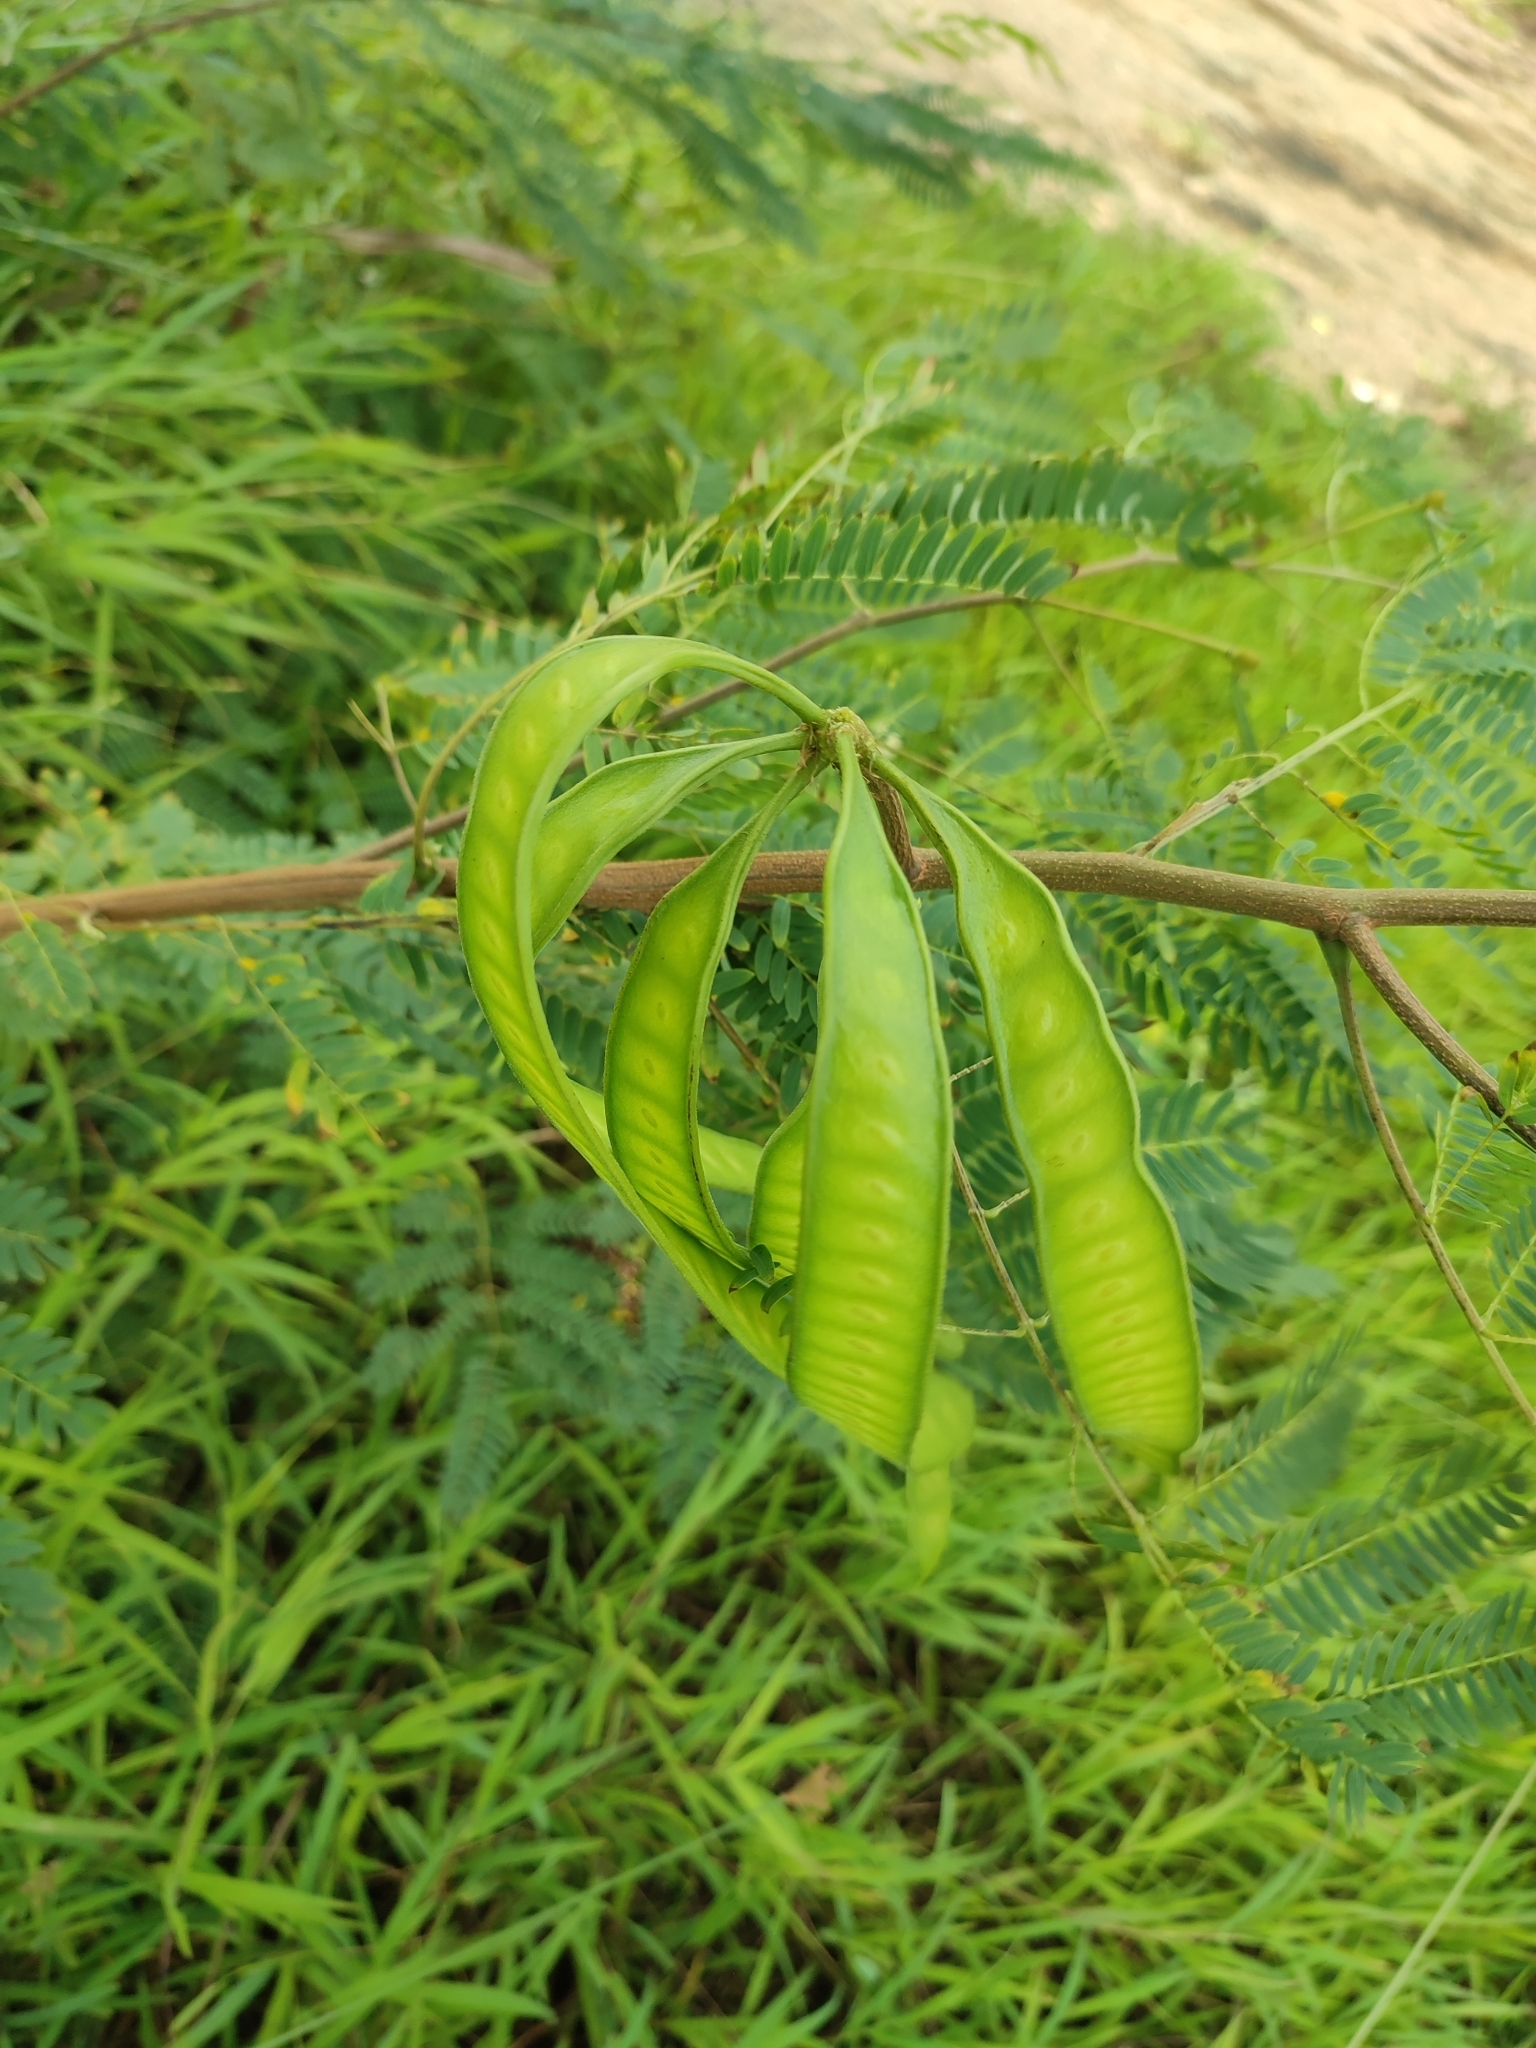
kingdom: Plantae
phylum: Tracheophyta
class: Magnoliopsida
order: Fabales
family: Fabaceae
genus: Leucaena
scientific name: Leucaena leucocephala
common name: White leadtree
